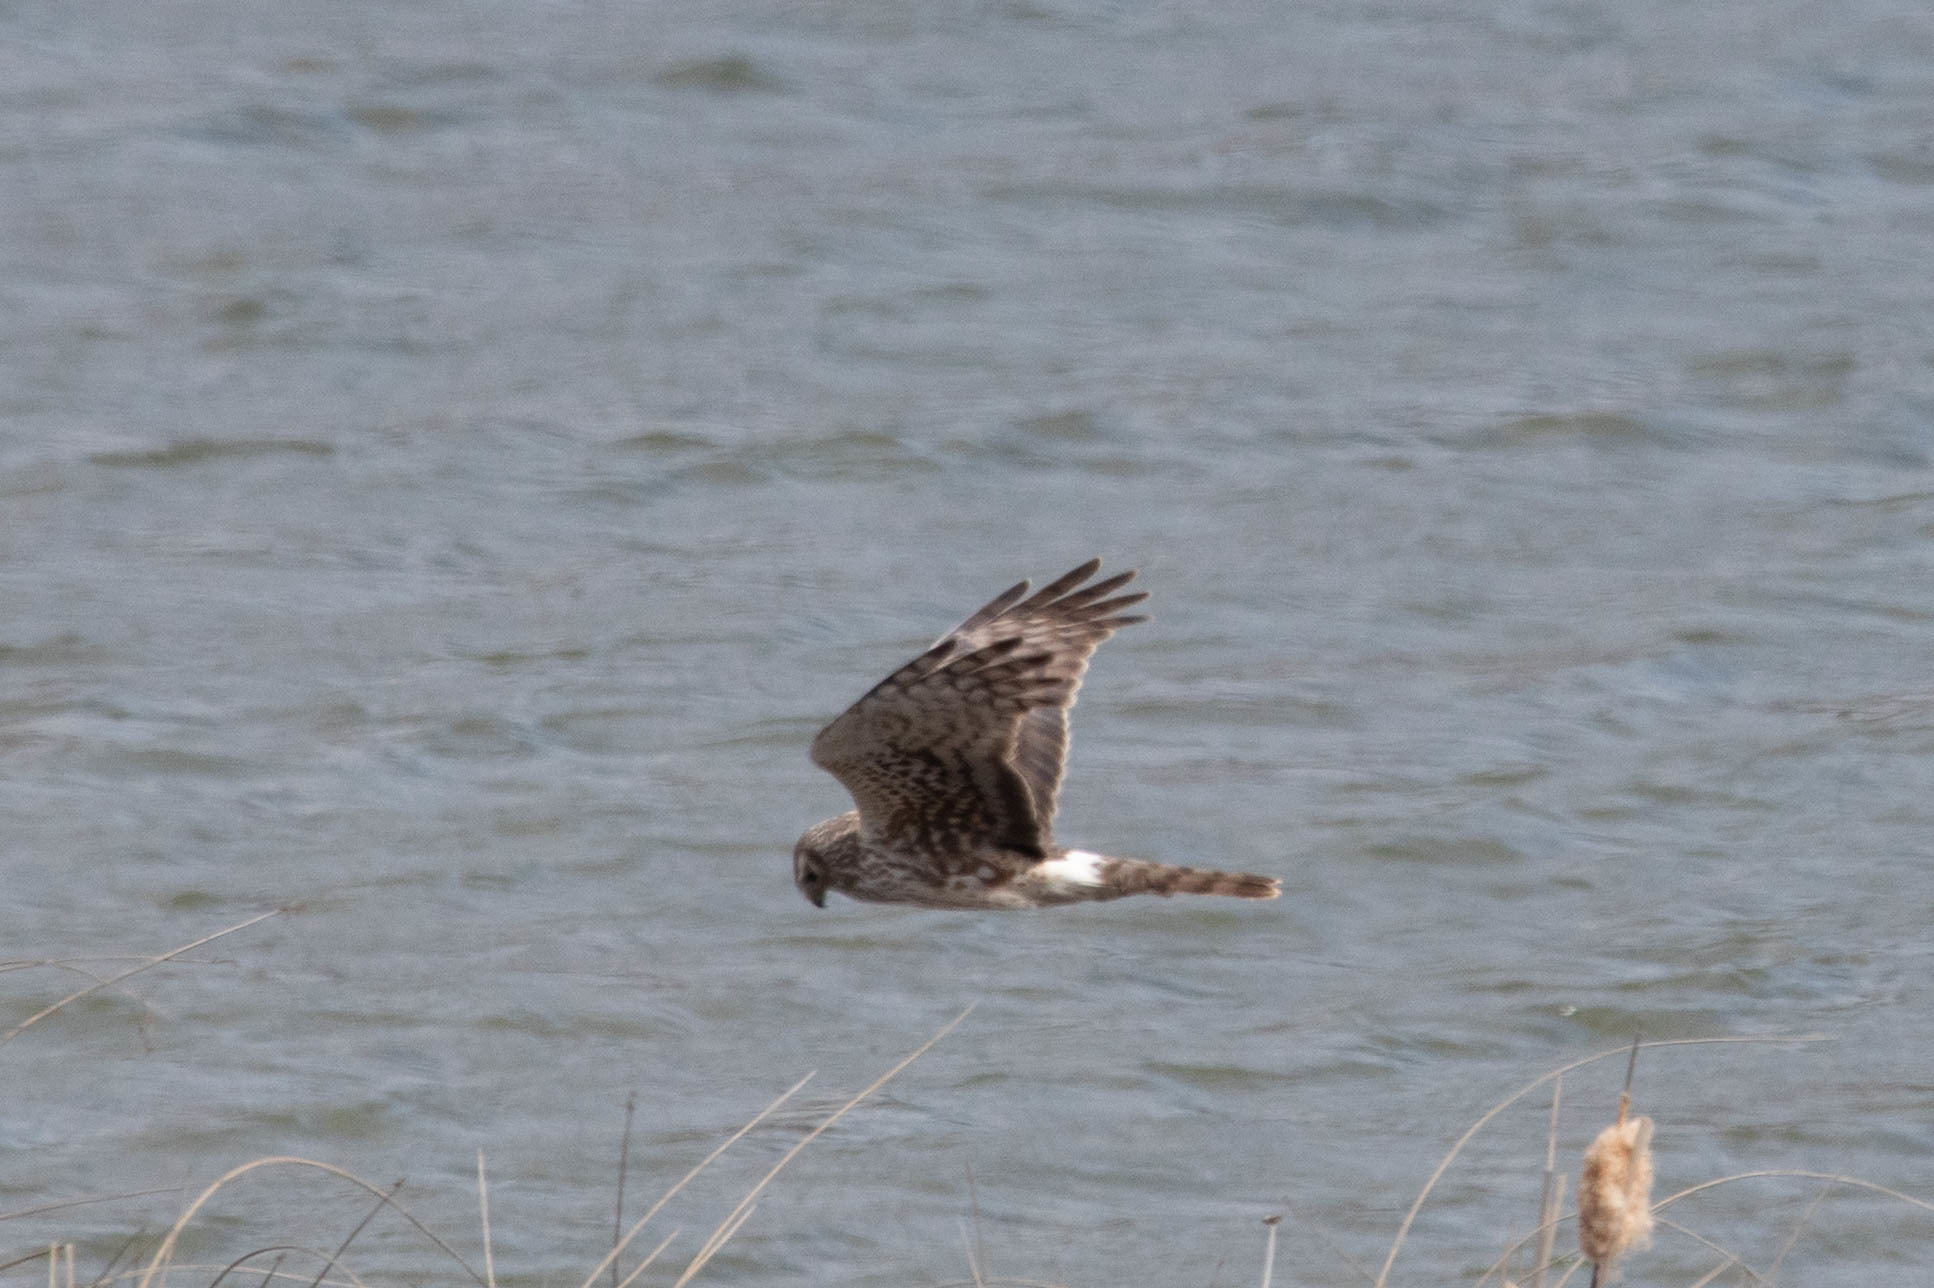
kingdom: Animalia
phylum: Chordata
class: Aves
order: Accipitriformes
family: Accipitridae
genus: Circus
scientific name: Circus cyaneus
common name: Hen harrier
